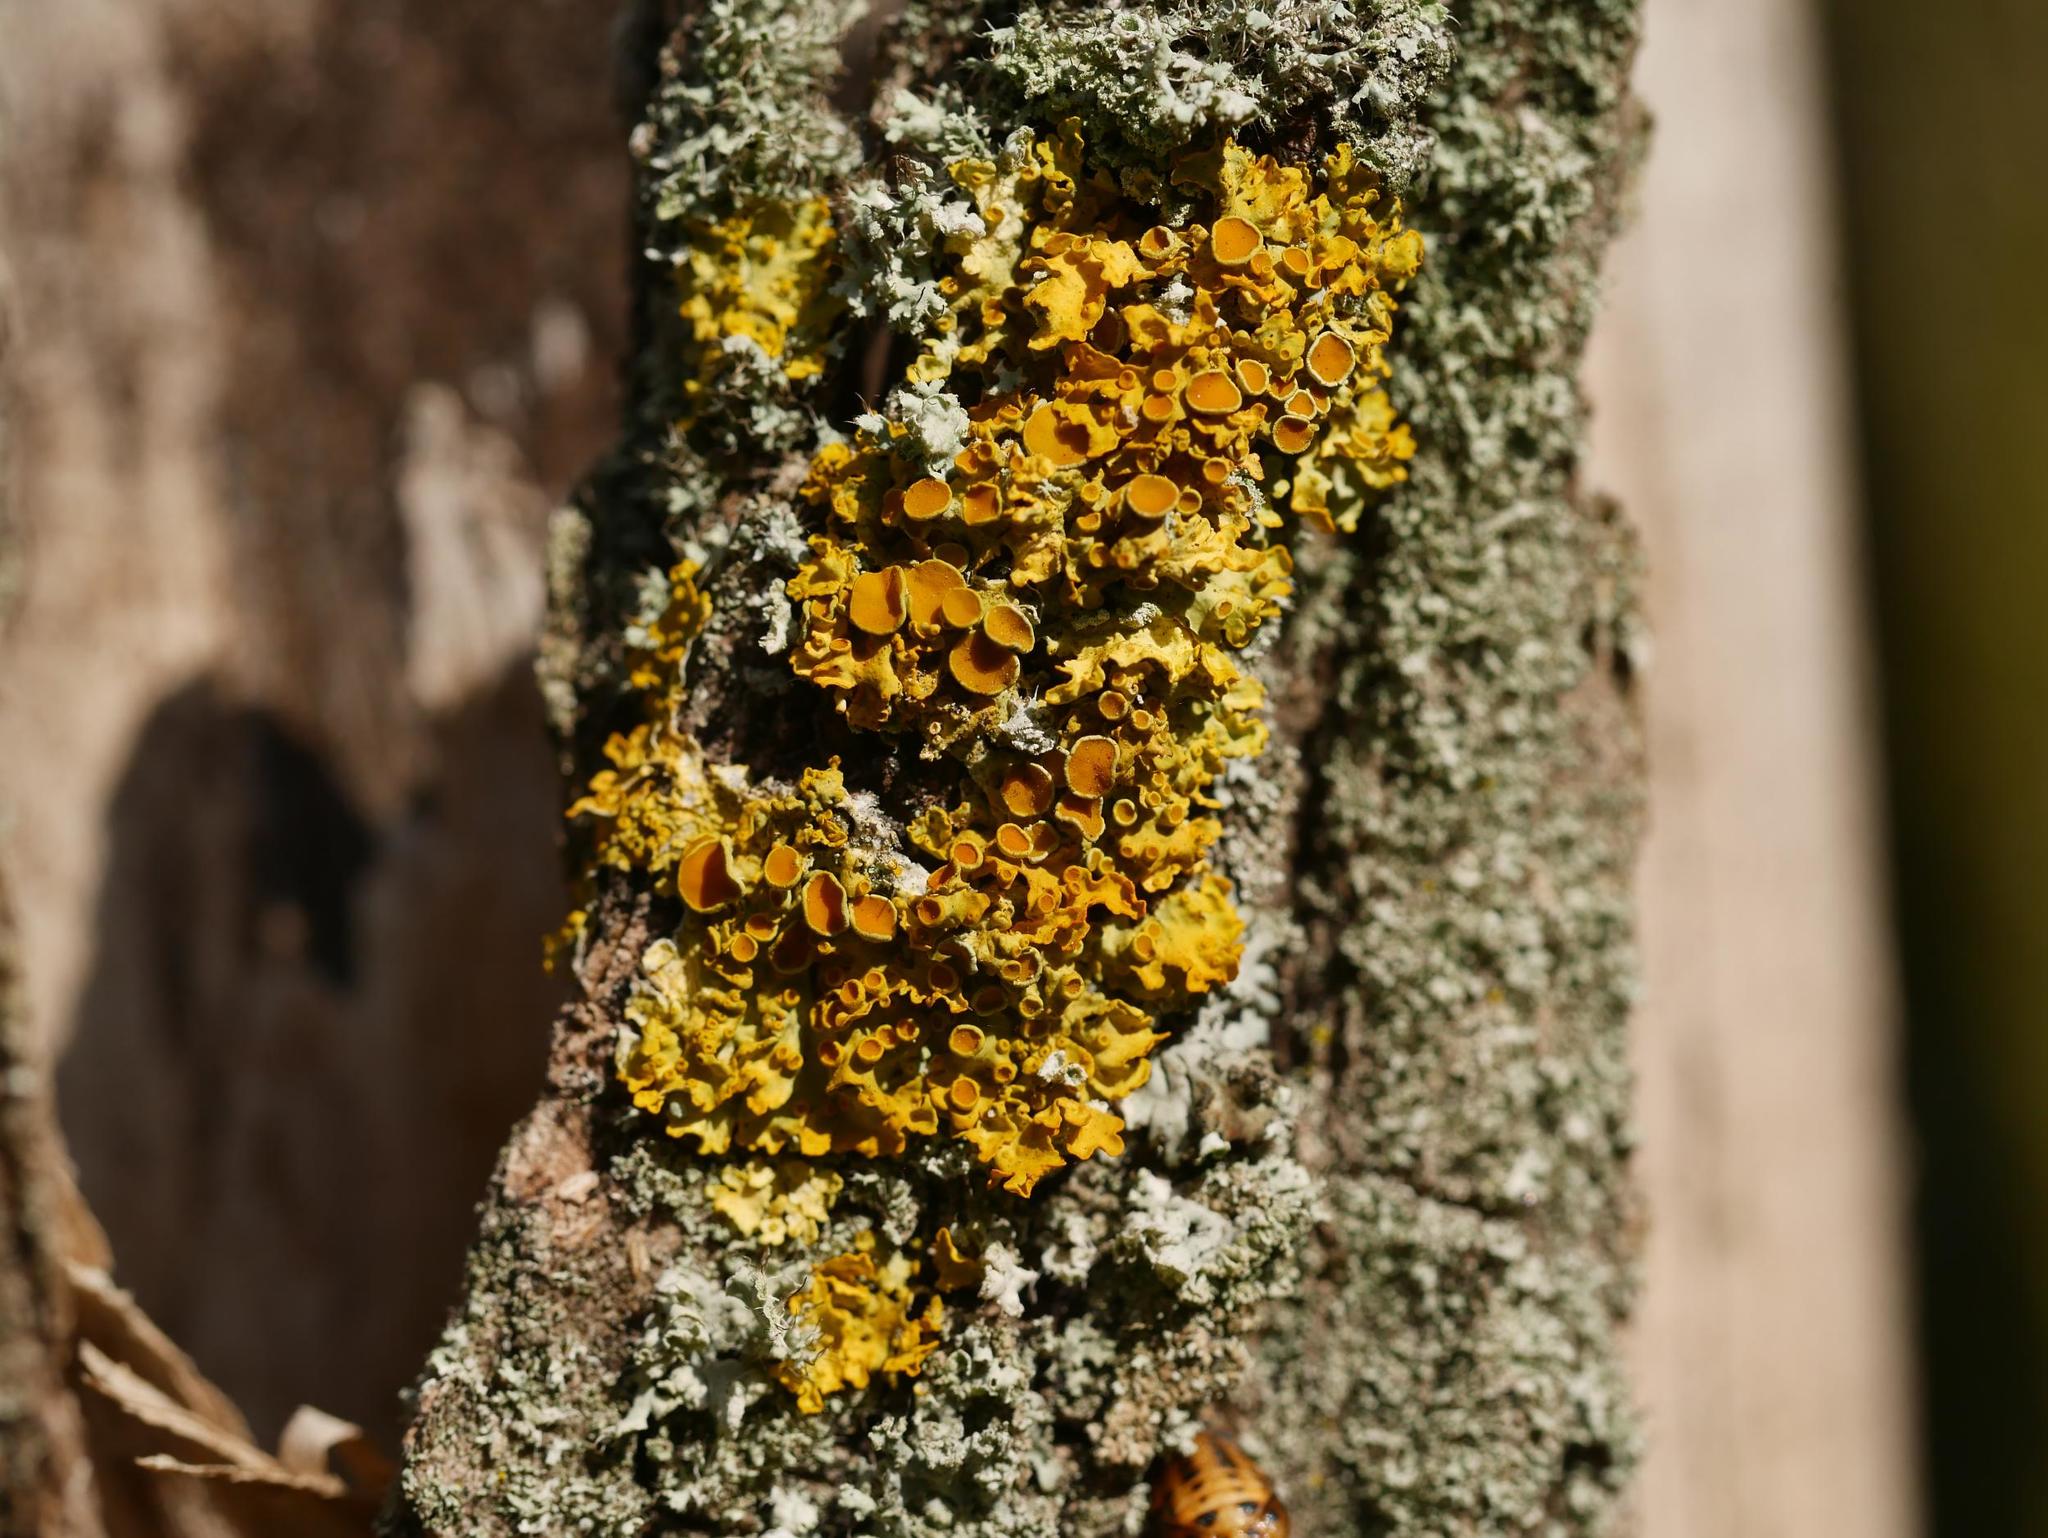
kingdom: Fungi
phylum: Ascomycota
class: Lecanoromycetes
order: Teloschistales
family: Teloschistaceae
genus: Xanthoria
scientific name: Xanthoria parietina
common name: Common orange lichen
